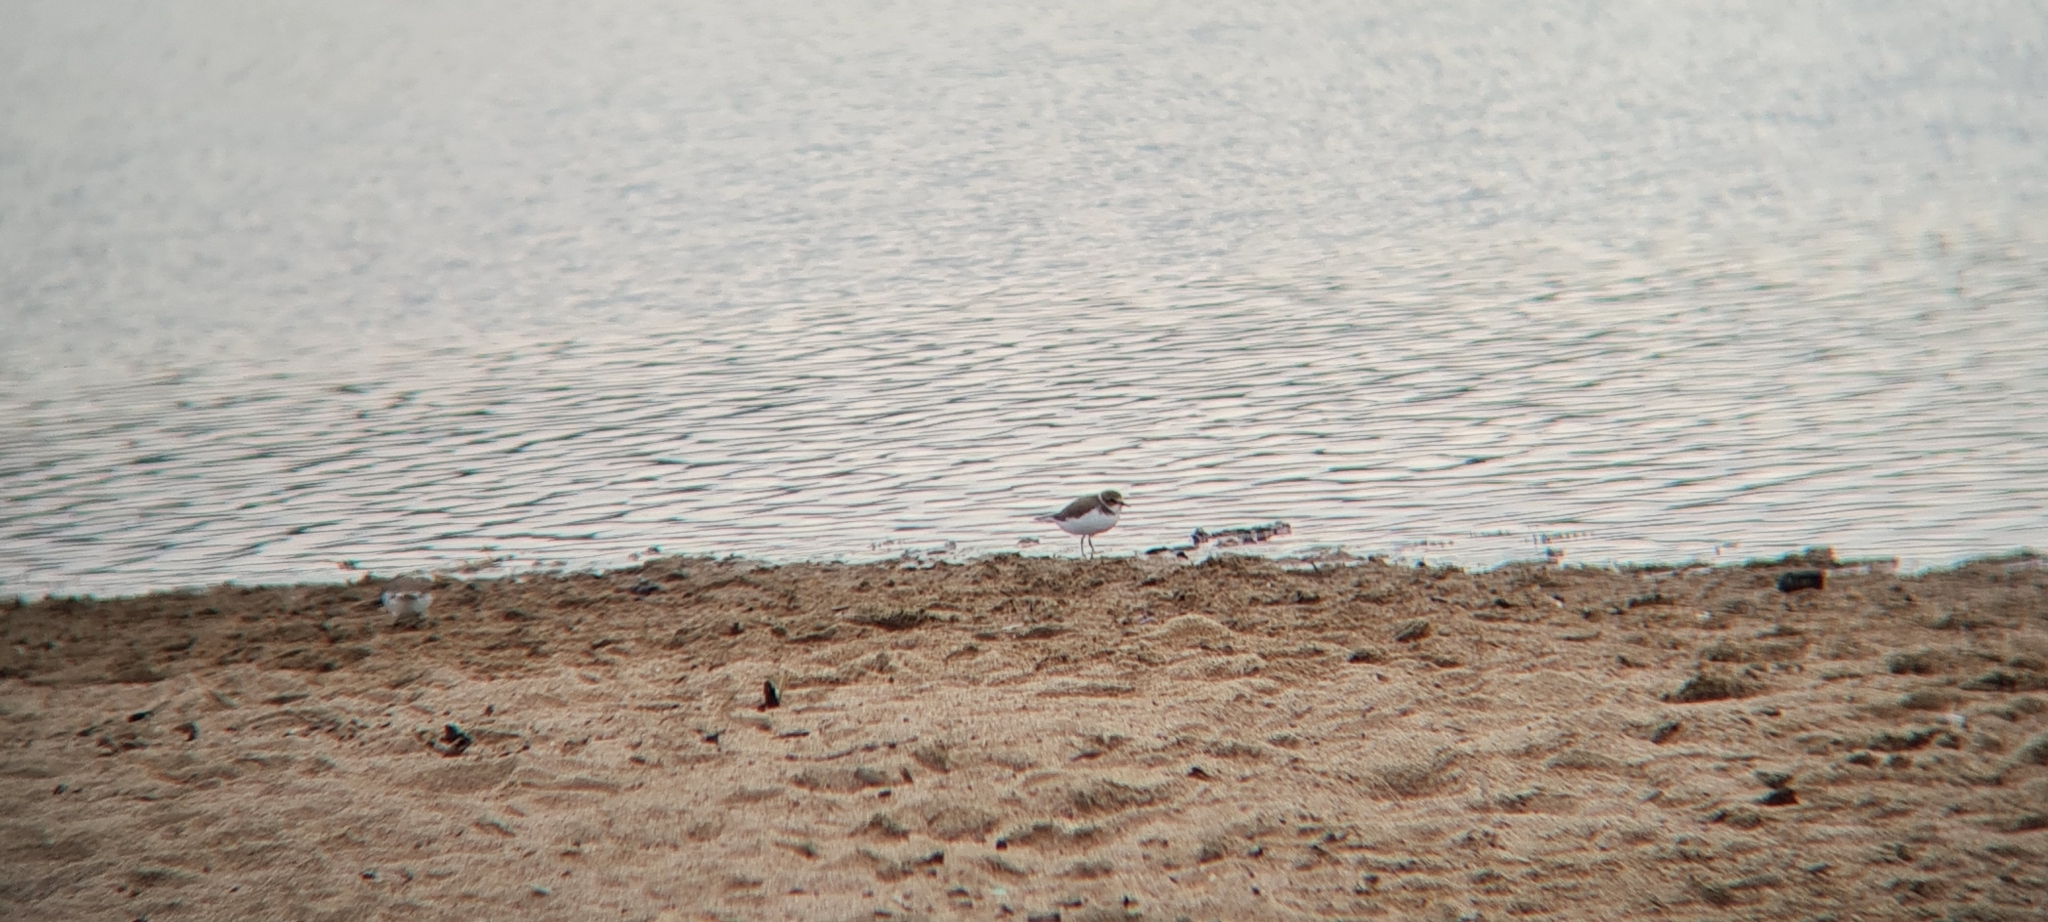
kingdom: Animalia
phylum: Chordata
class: Aves
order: Charadriiformes
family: Charadriidae
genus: Charadrius
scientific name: Charadrius alexandrinus
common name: Kentish plover
